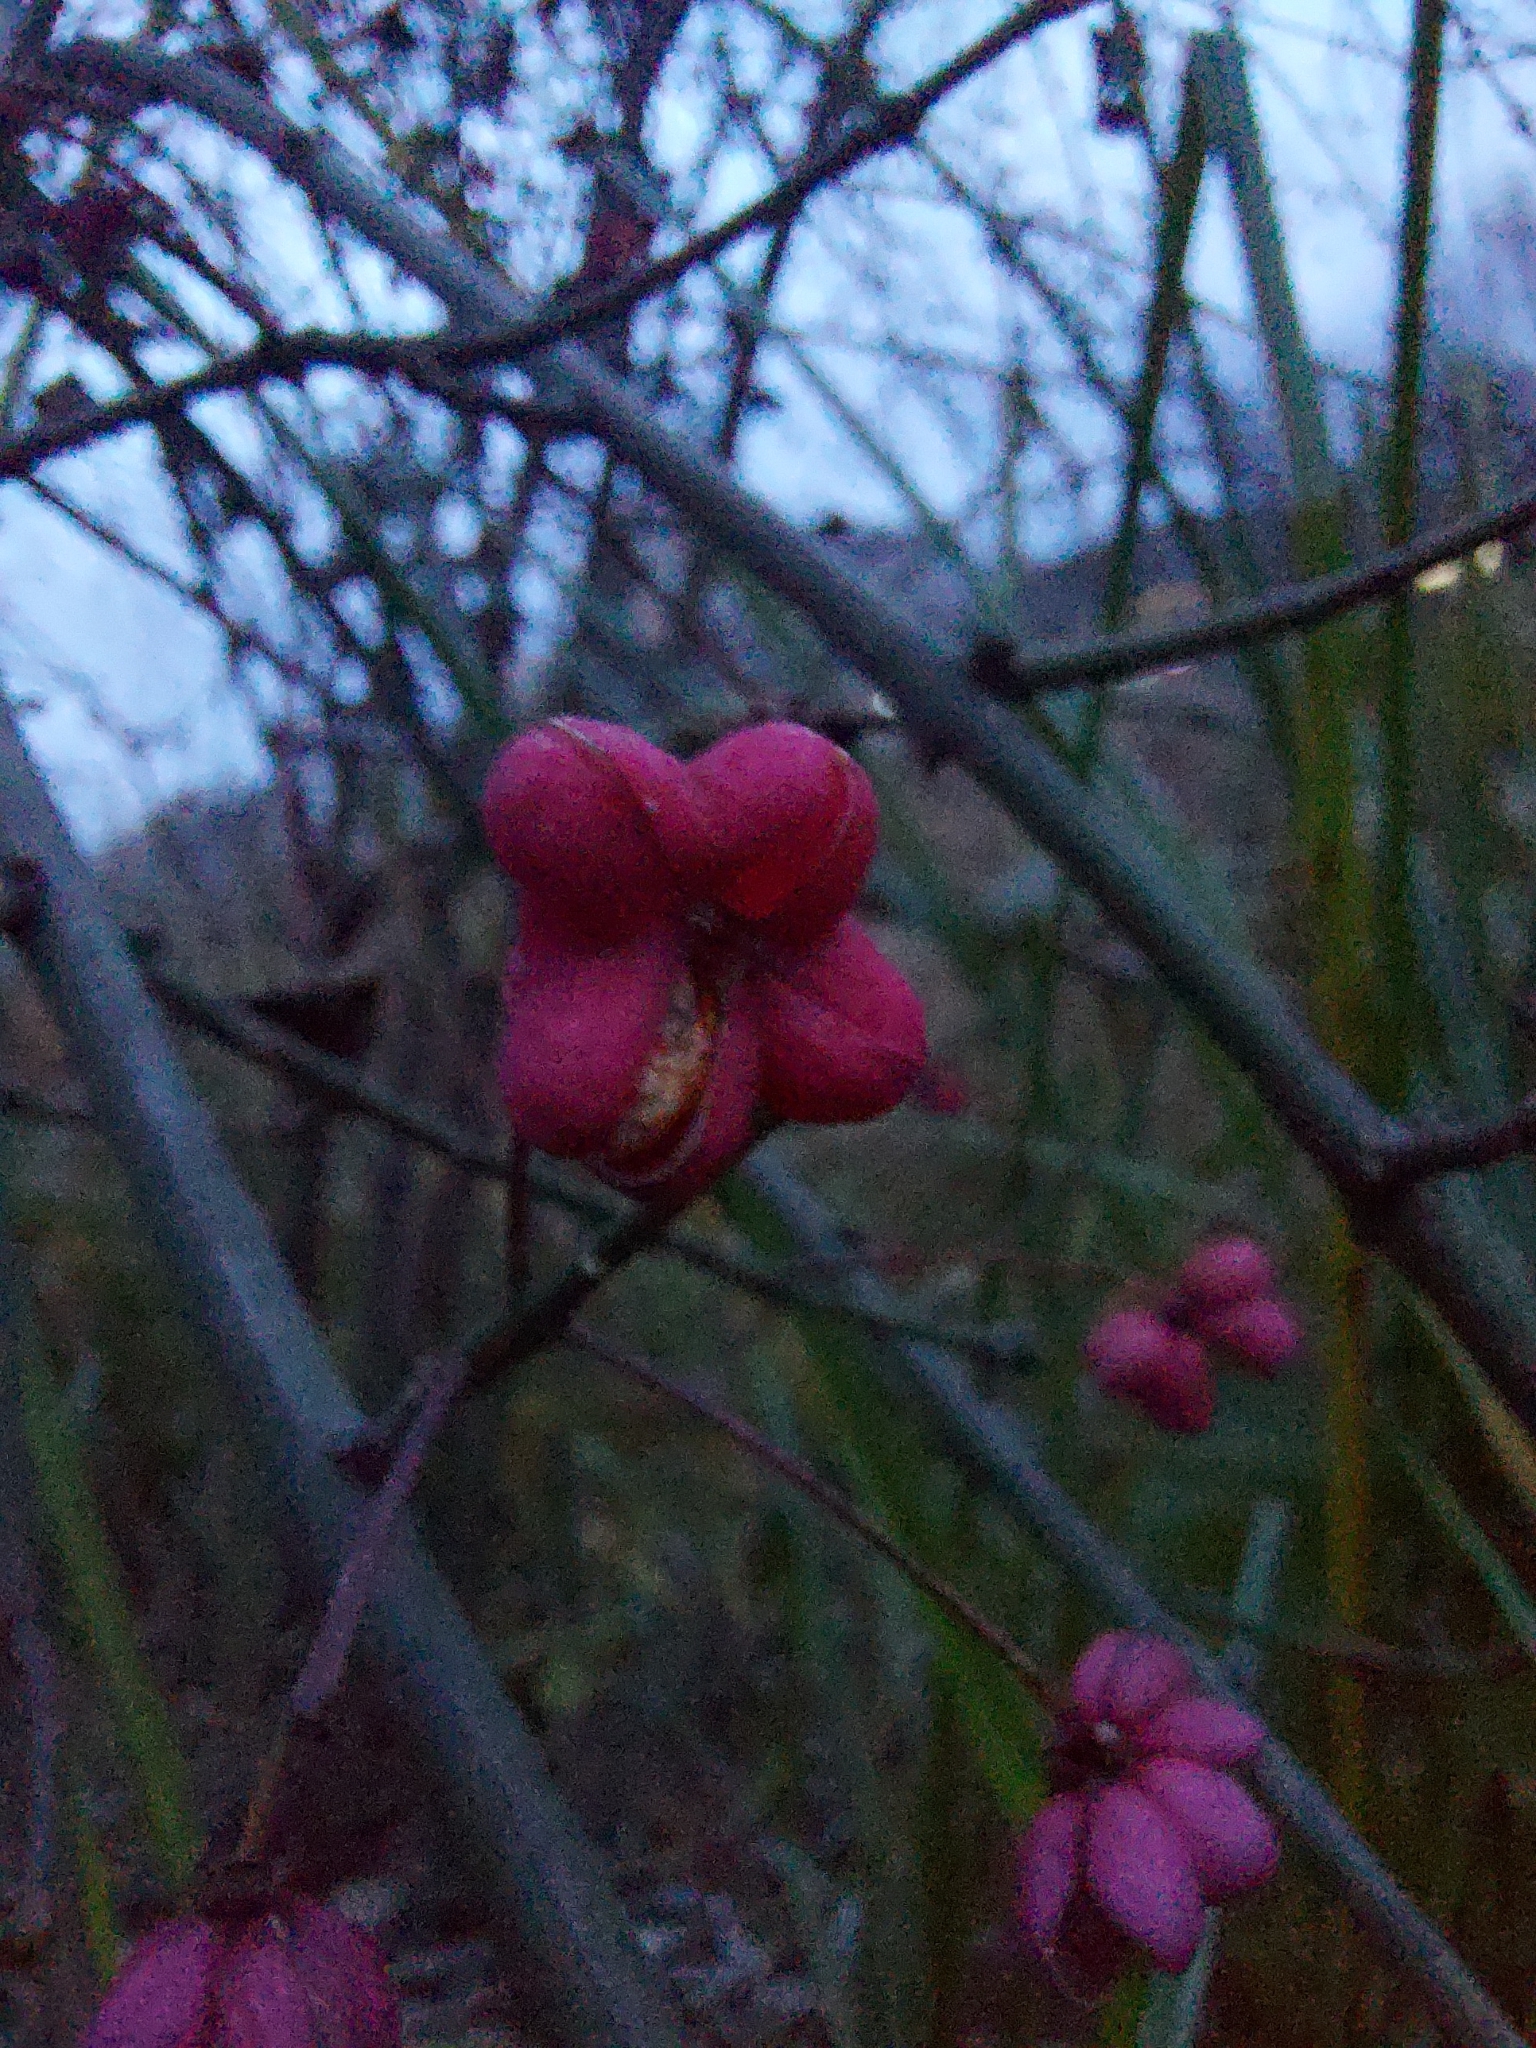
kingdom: Plantae
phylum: Tracheophyta
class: Magnoliopsida
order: Celastrales
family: Celastraceae
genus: Euonymus
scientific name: Euonymus europaeus
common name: Spindle
